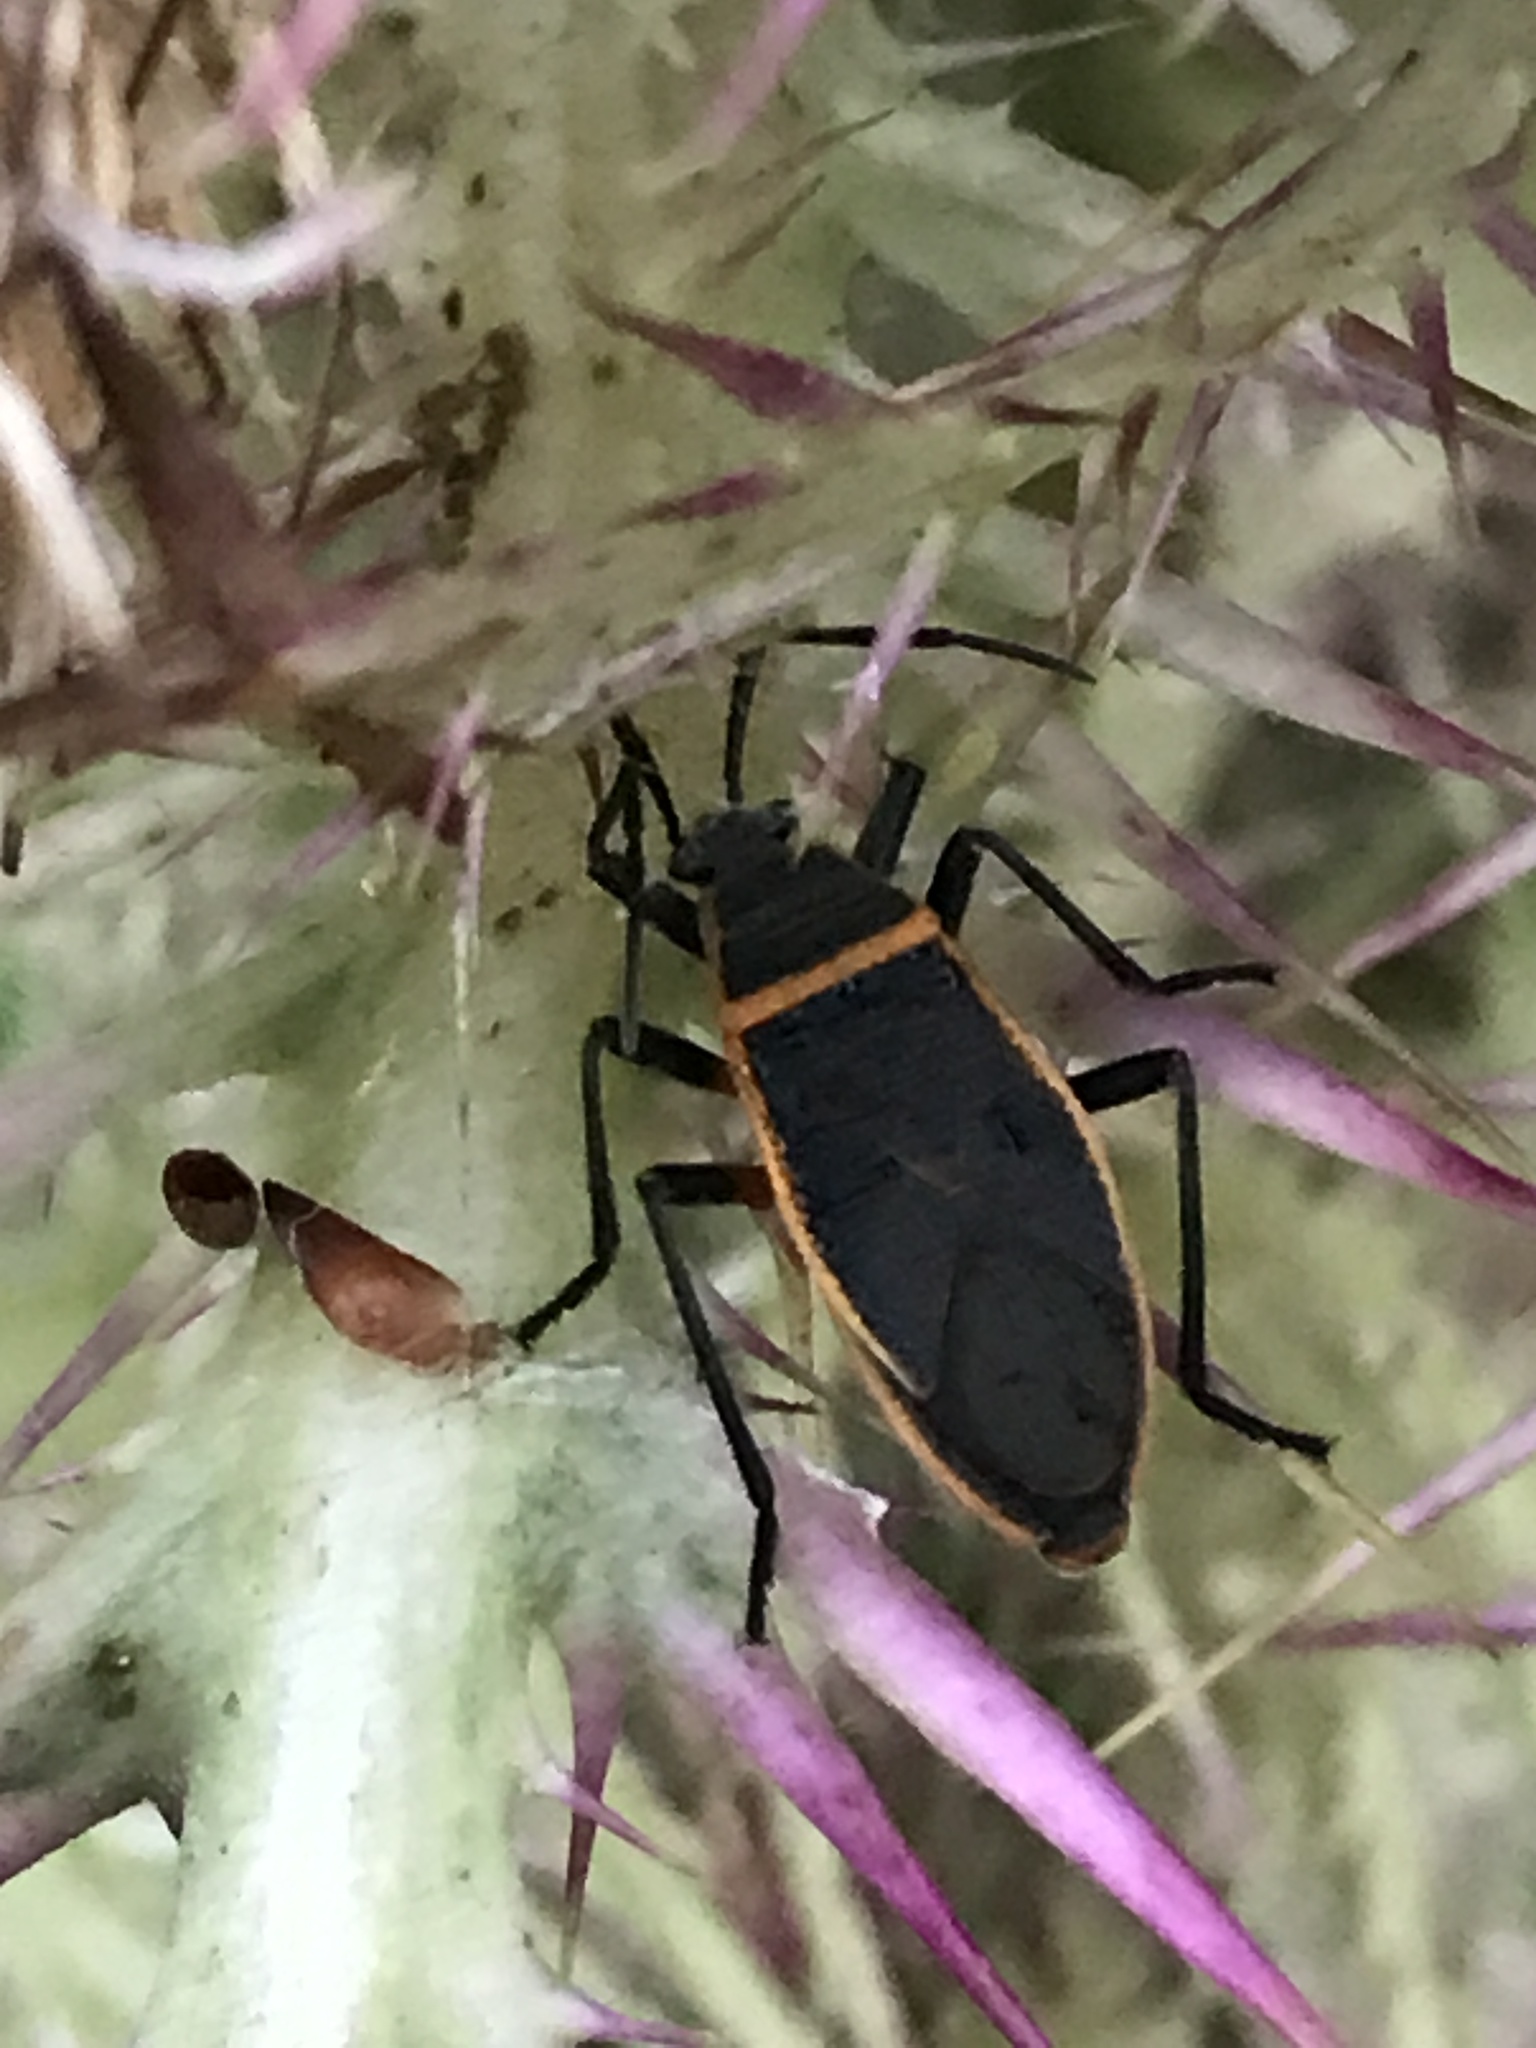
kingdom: Animalia
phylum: Arthropoda
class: Insecta
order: Hemiptera
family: Largidae
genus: Largus
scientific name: Largus succinctus
